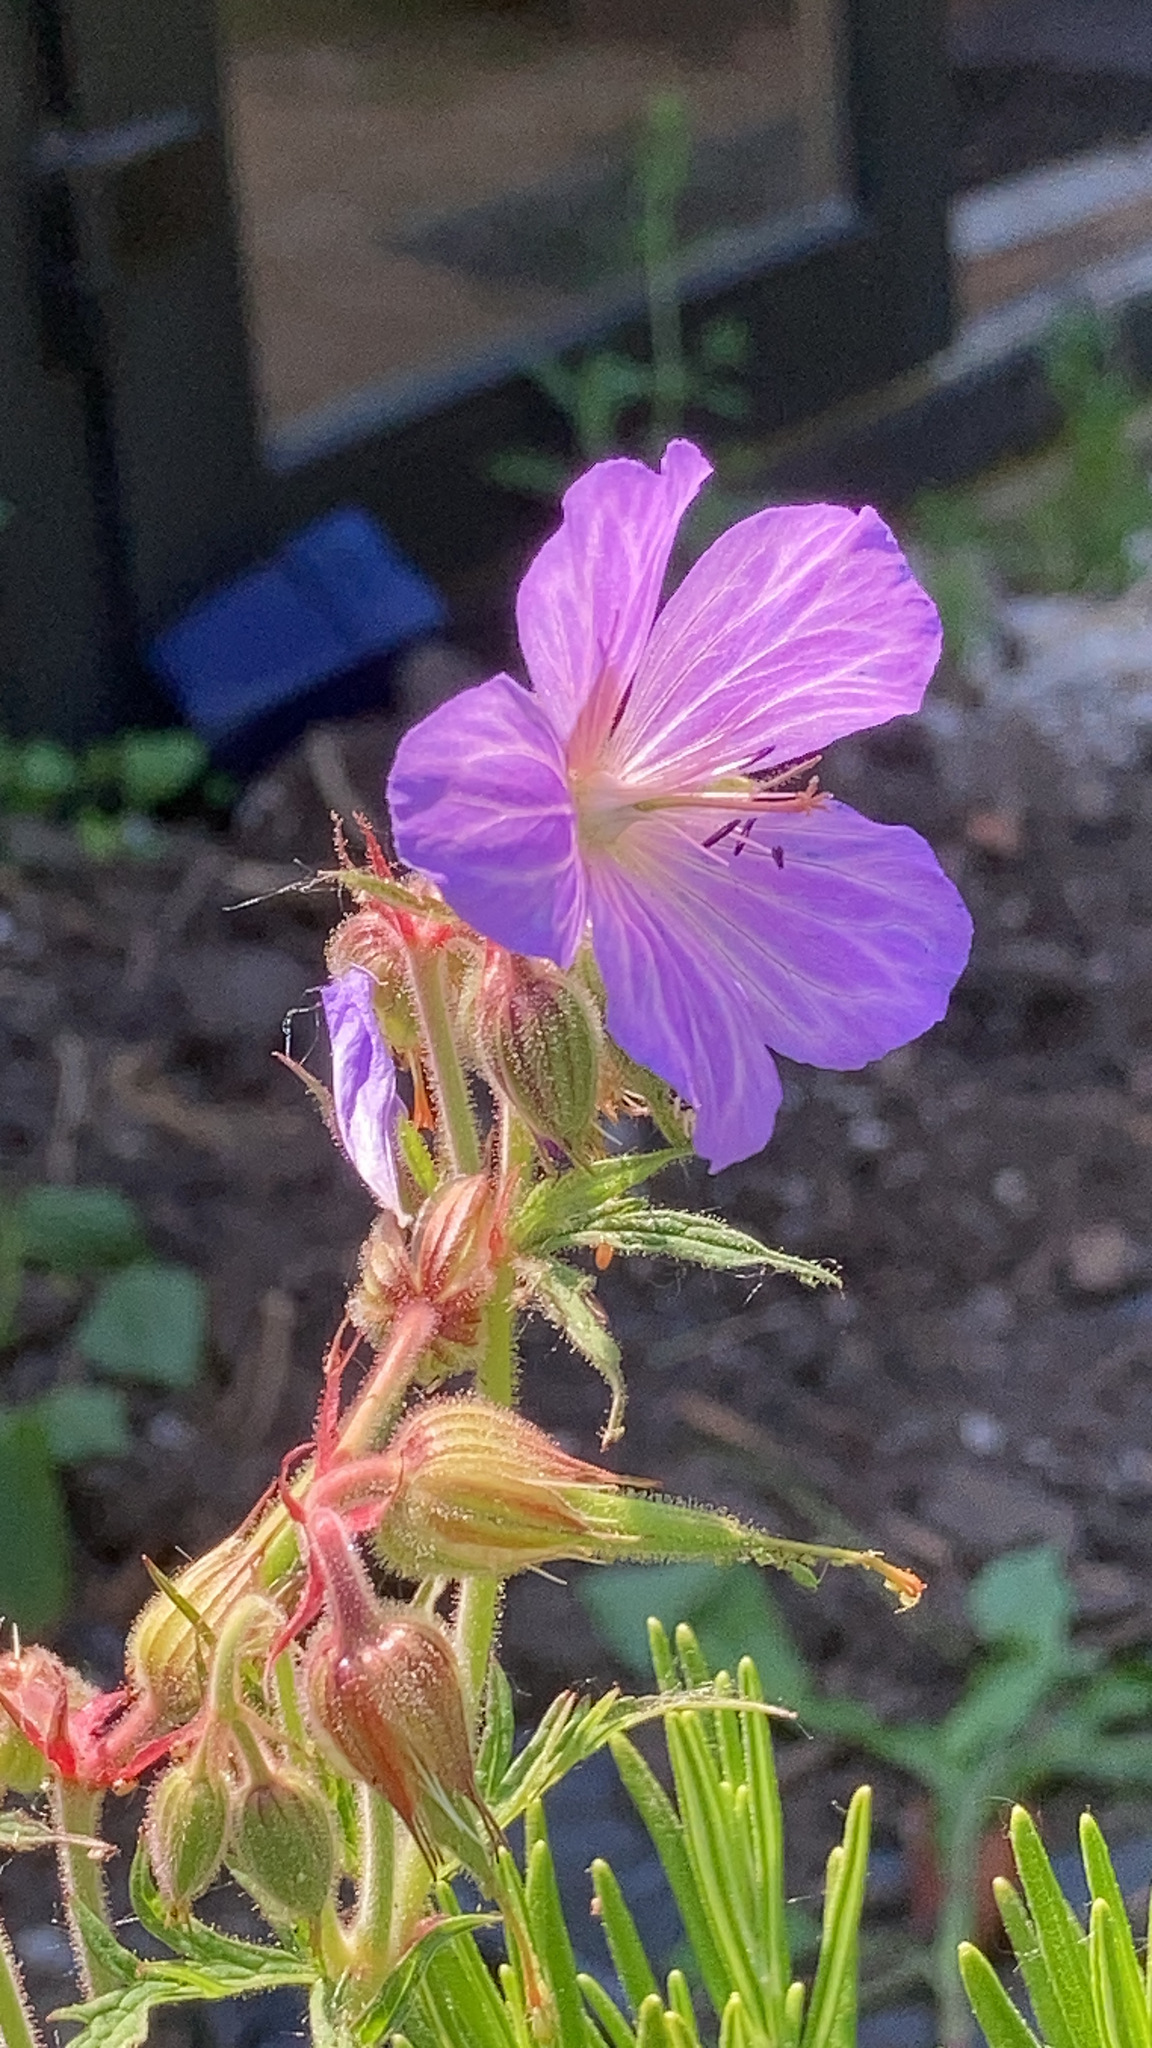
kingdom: Plantae
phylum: Tracheophyta
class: Magnoliopsida
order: Geraniales
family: Geraniaceae
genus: Geranium
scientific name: Geranium pratense
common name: Meadow crane's-bill
